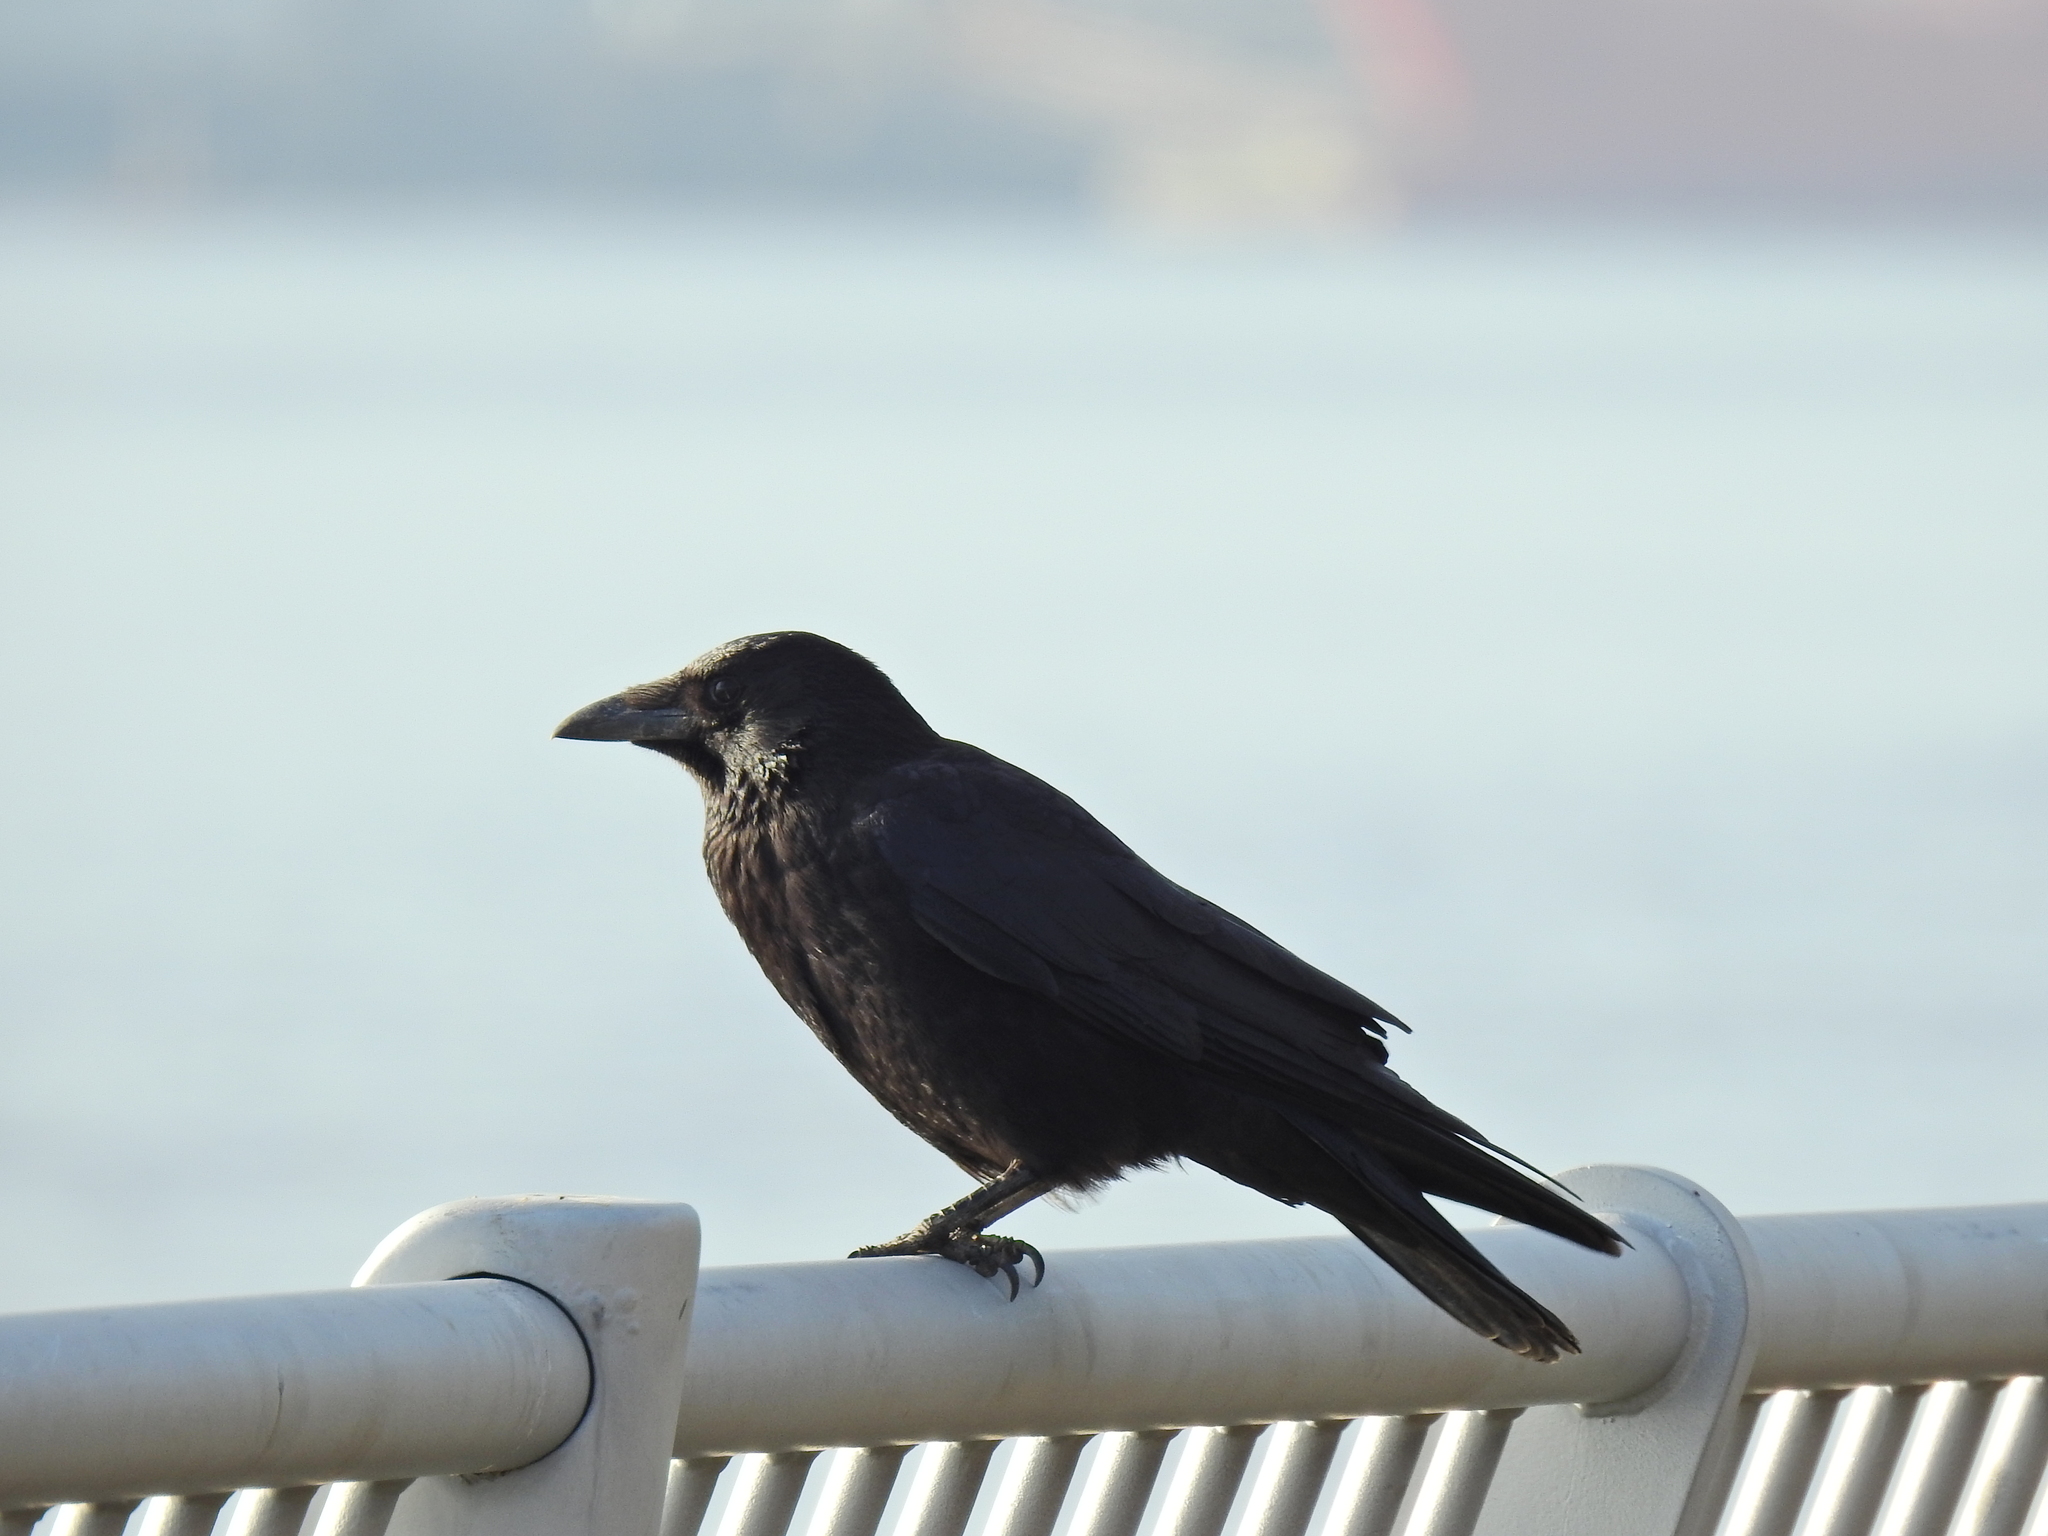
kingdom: Animalia
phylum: Chordata
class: Aves
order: Passeriformes
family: Corvidae
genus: Corvus
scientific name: Corvus corone
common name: Carrion crow
